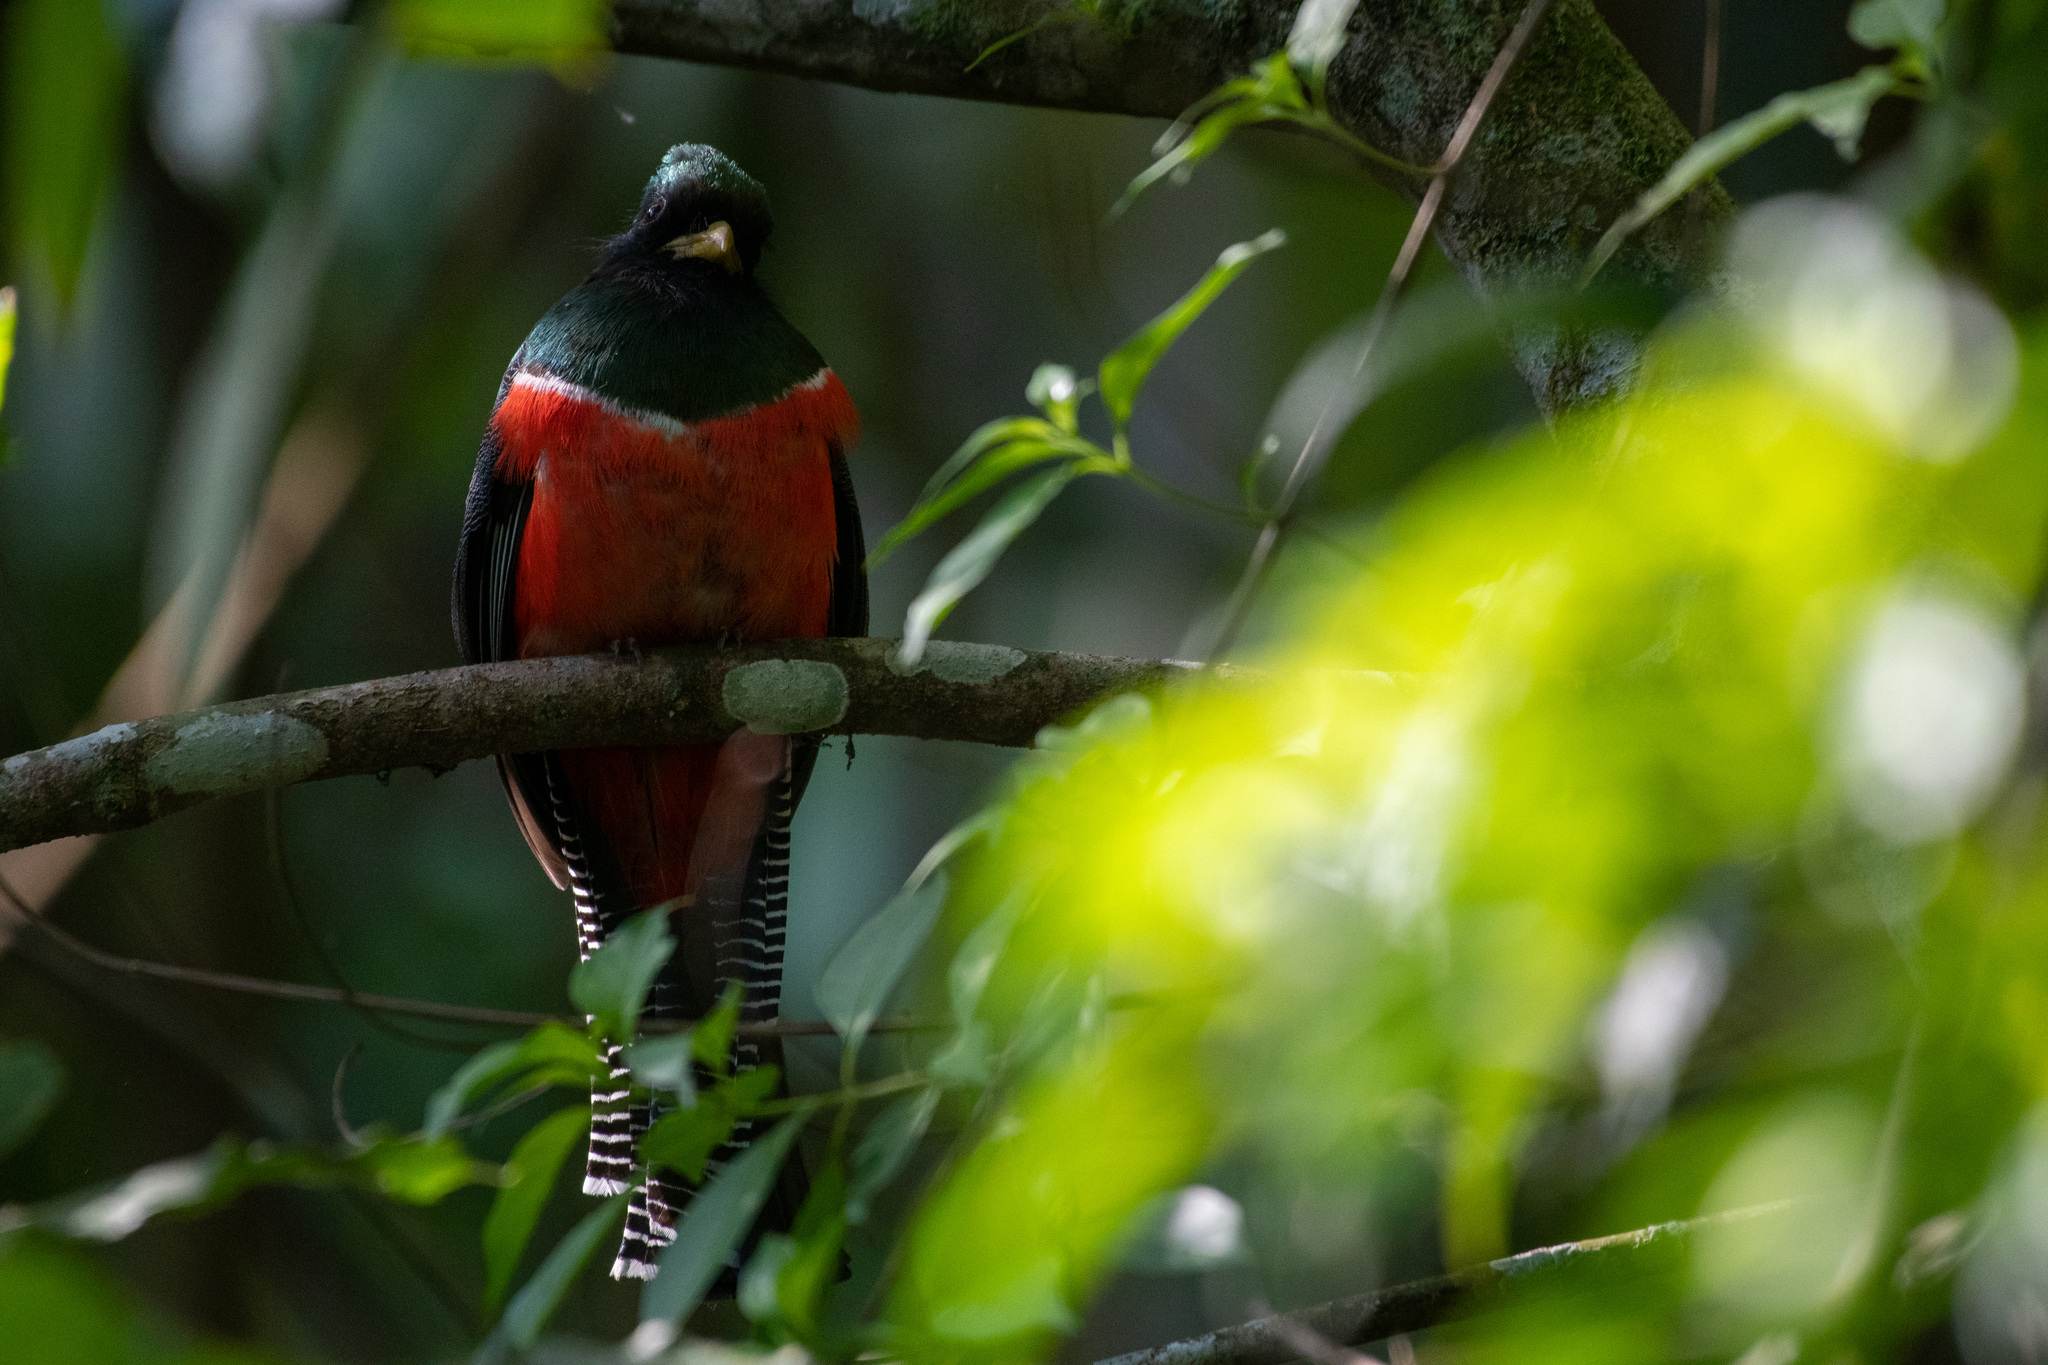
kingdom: Animalia
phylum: Chordata
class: Aves
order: Trogoniformes
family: Trogonidae
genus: Trogon
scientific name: Trogon collaris
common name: Collared trogon
